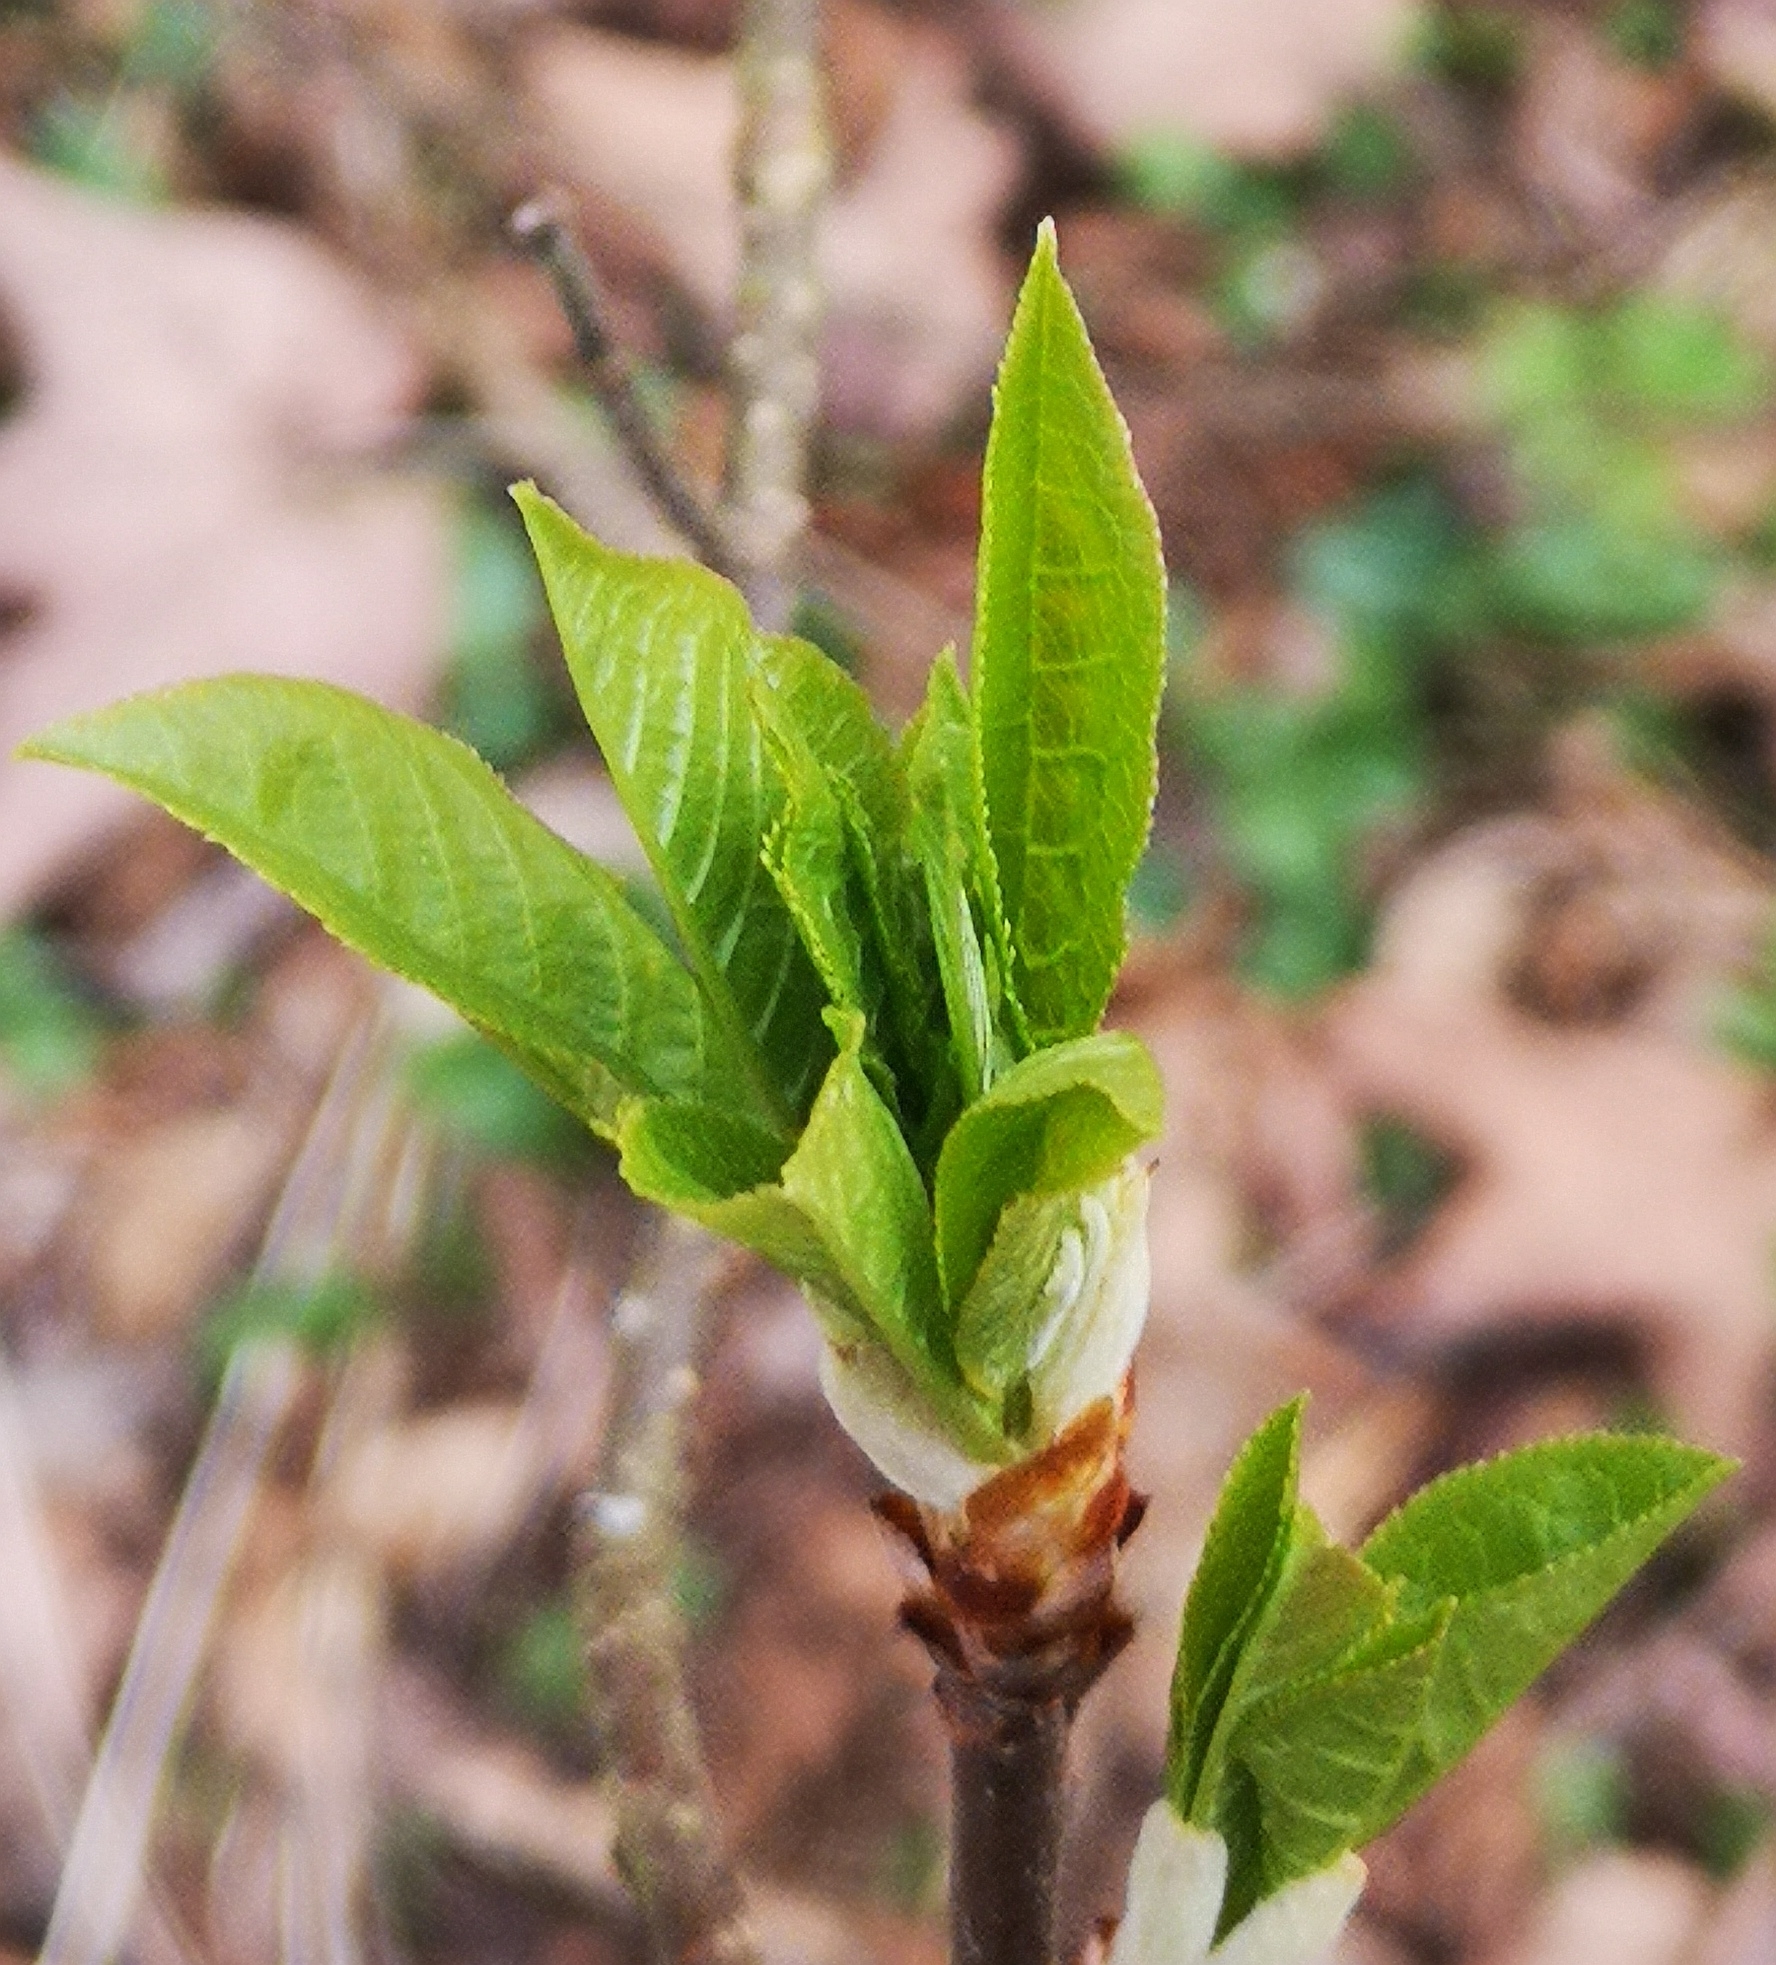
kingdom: Plantae
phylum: Tracheophyta
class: Magnoliopsida
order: Rosales
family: Rosaceae
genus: Prunus
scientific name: Prunus padus
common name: Bird cherry
